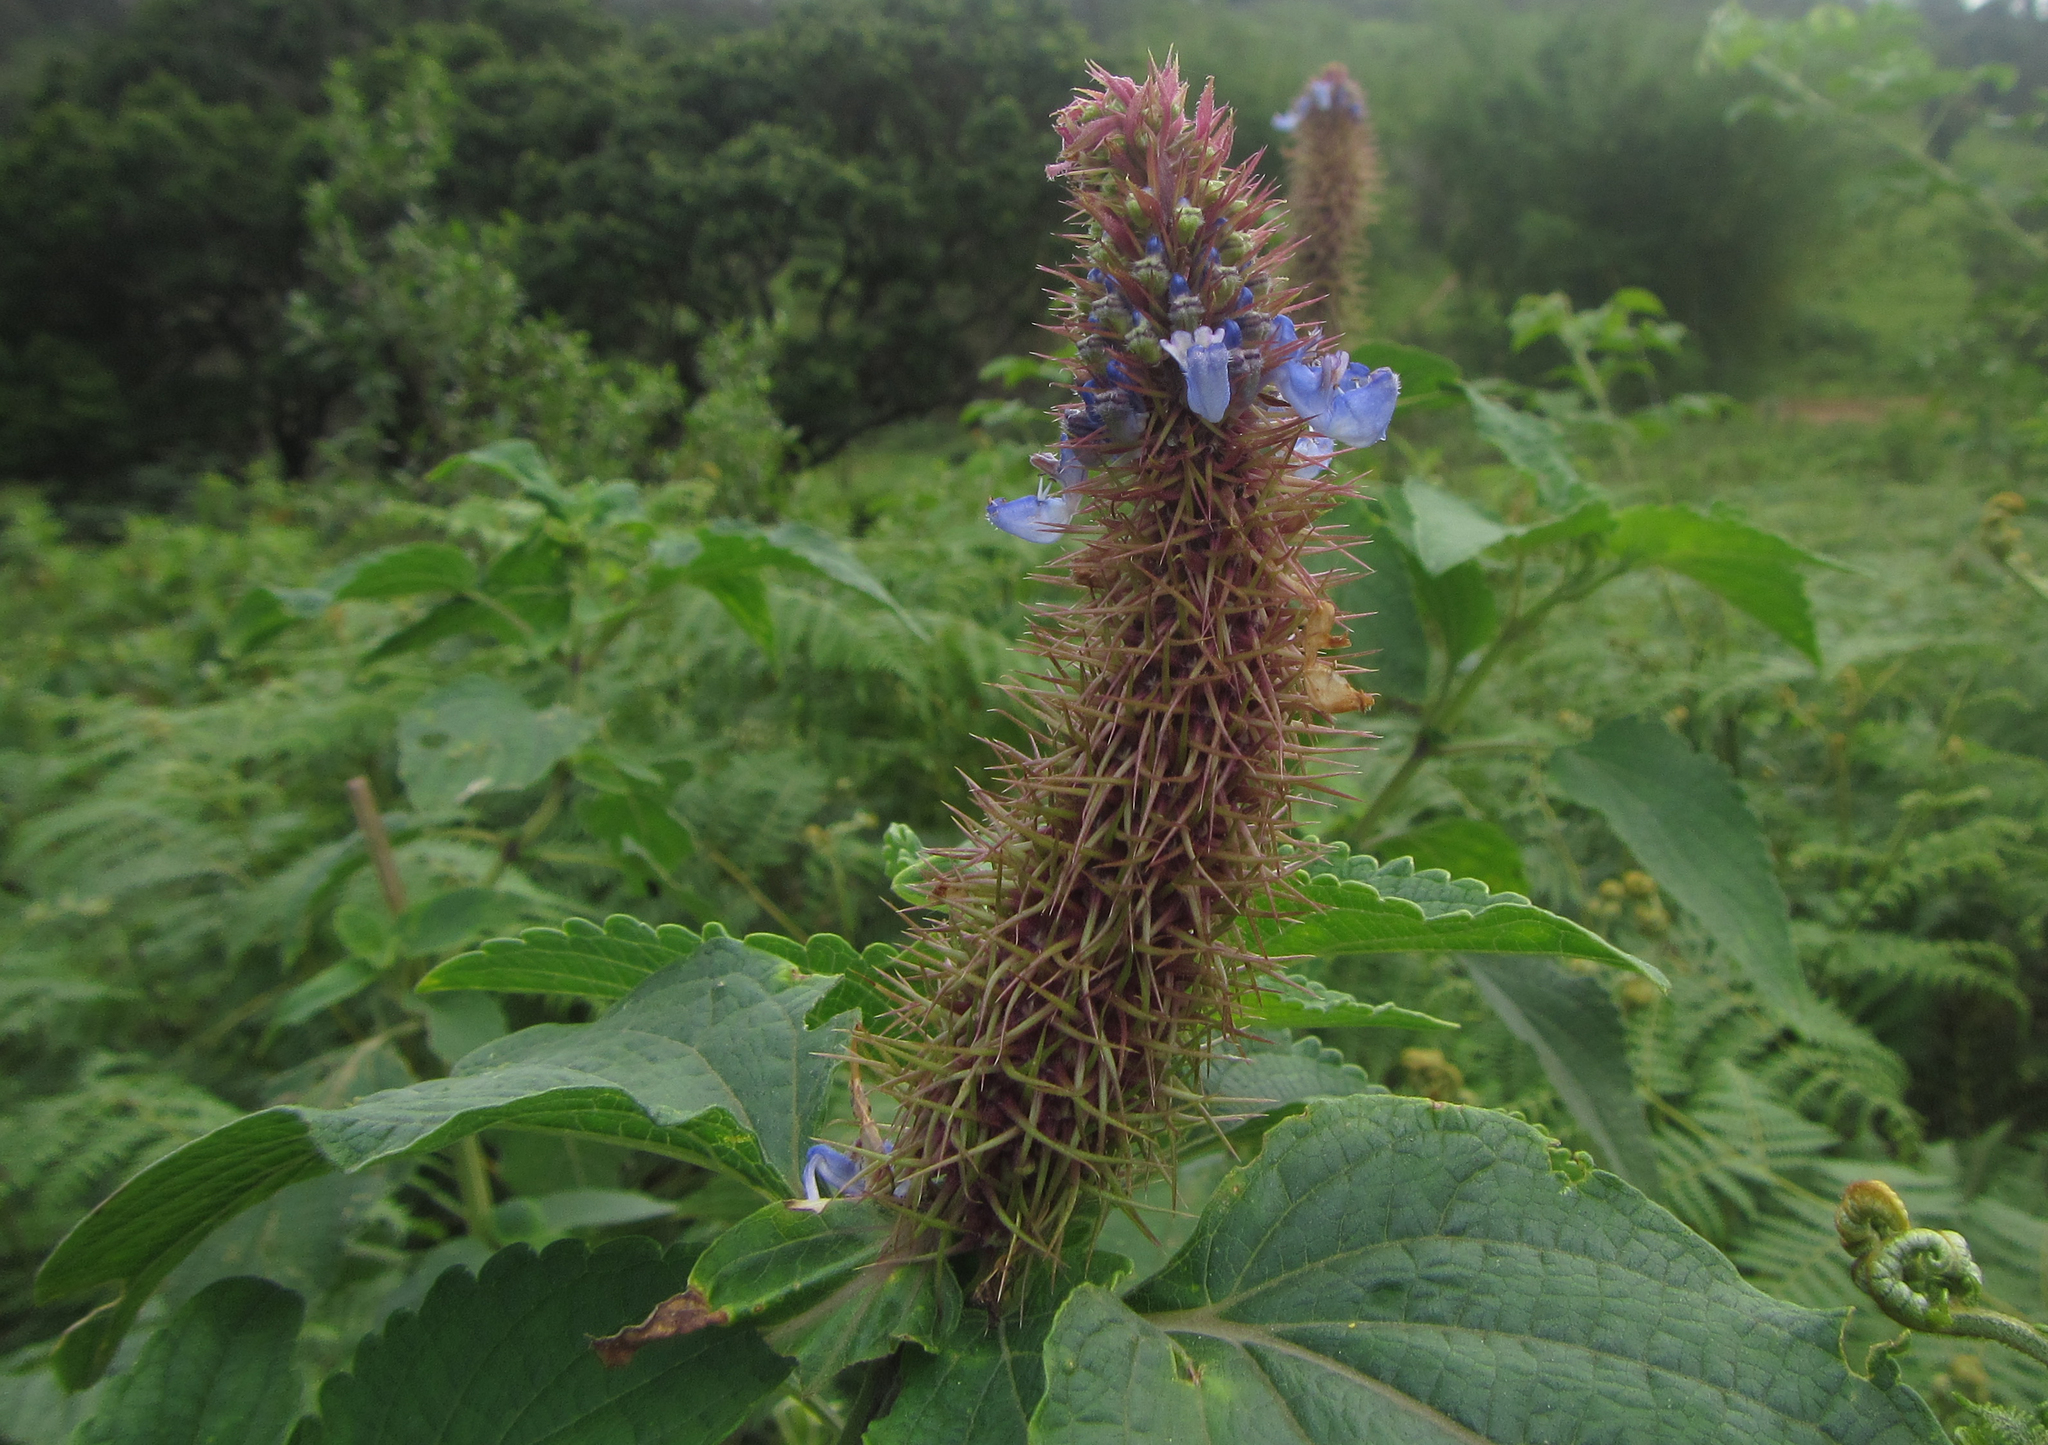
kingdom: Plantae
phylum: Tracheophyta
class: Magnoliopsida
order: Lamiales
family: Lamiaceae
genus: Coleus
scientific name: Coleus livingstonei
